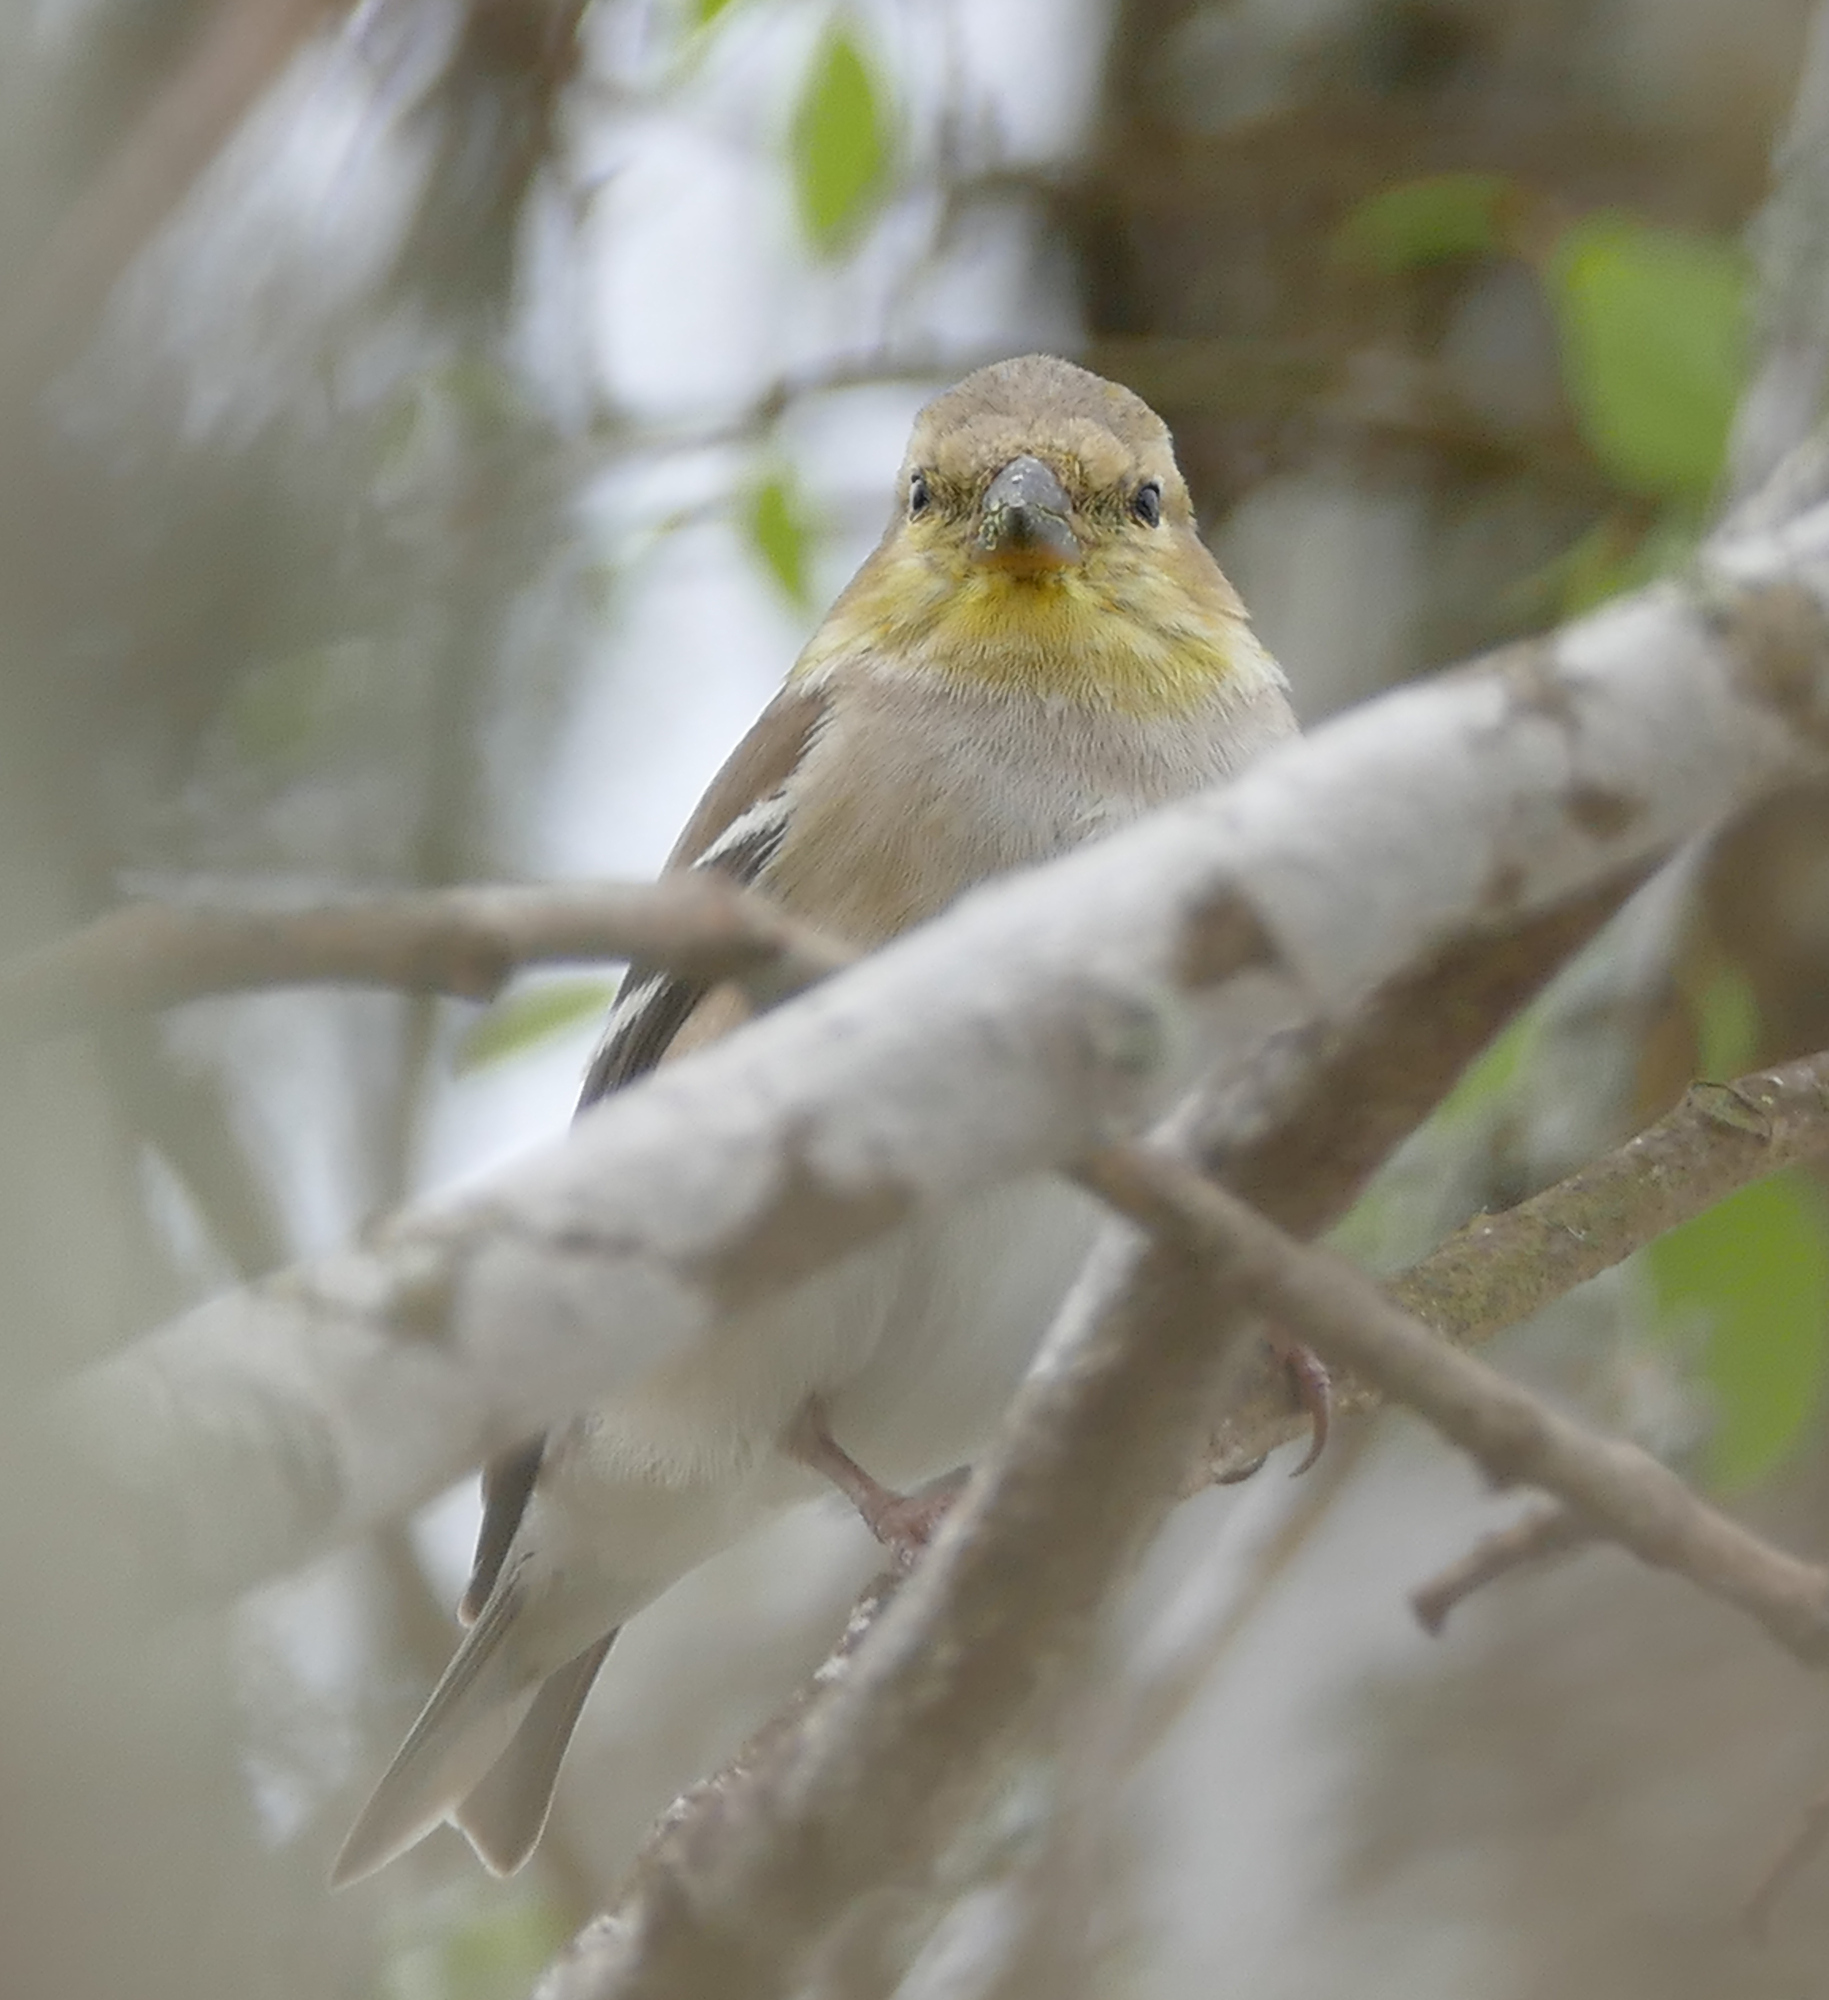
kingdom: Animalia
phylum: Chordata
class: Aves
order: Passeriformes
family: Fringillidae
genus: Spinus
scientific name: Spinus tristis
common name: American goldfinch
